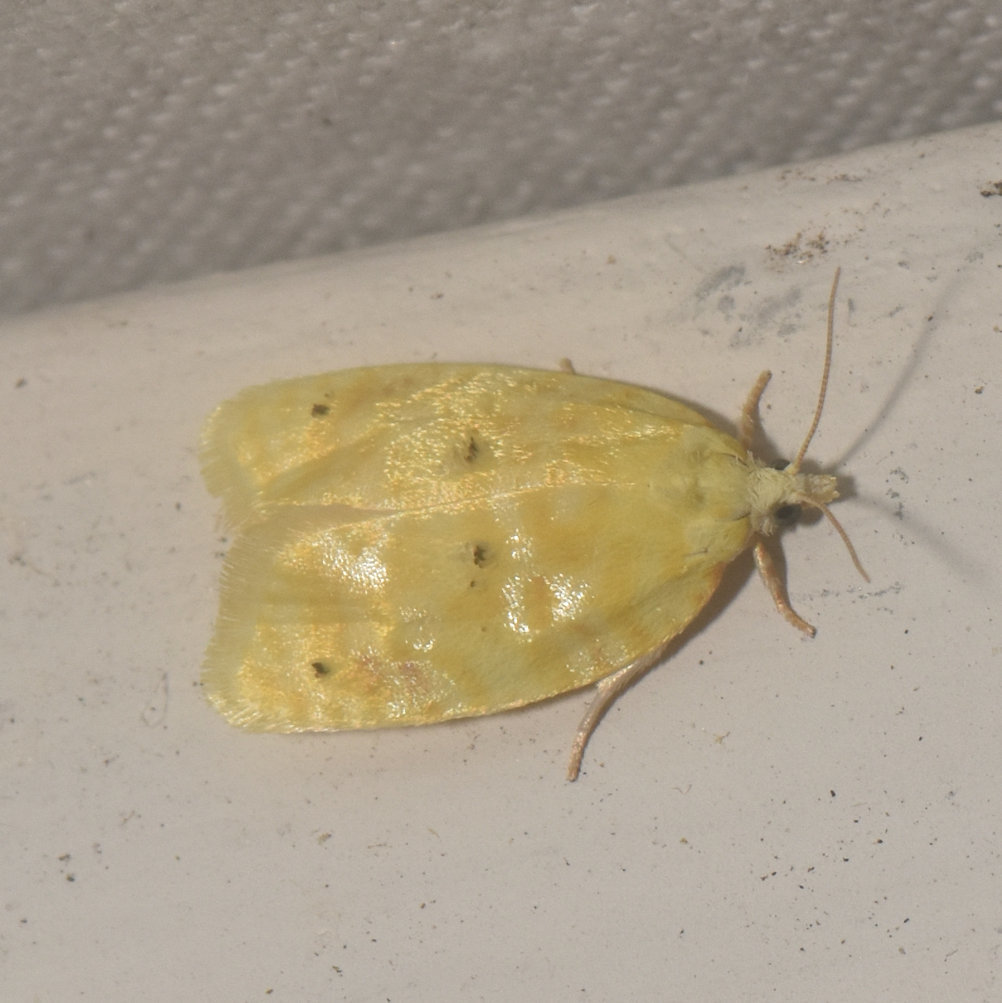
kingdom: Animalia
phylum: Arthropoda
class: Insecta
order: Lepidoptera
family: Tortricidae
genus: Acleris
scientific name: Acleris semipurpurana
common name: Oak leaftier moth
